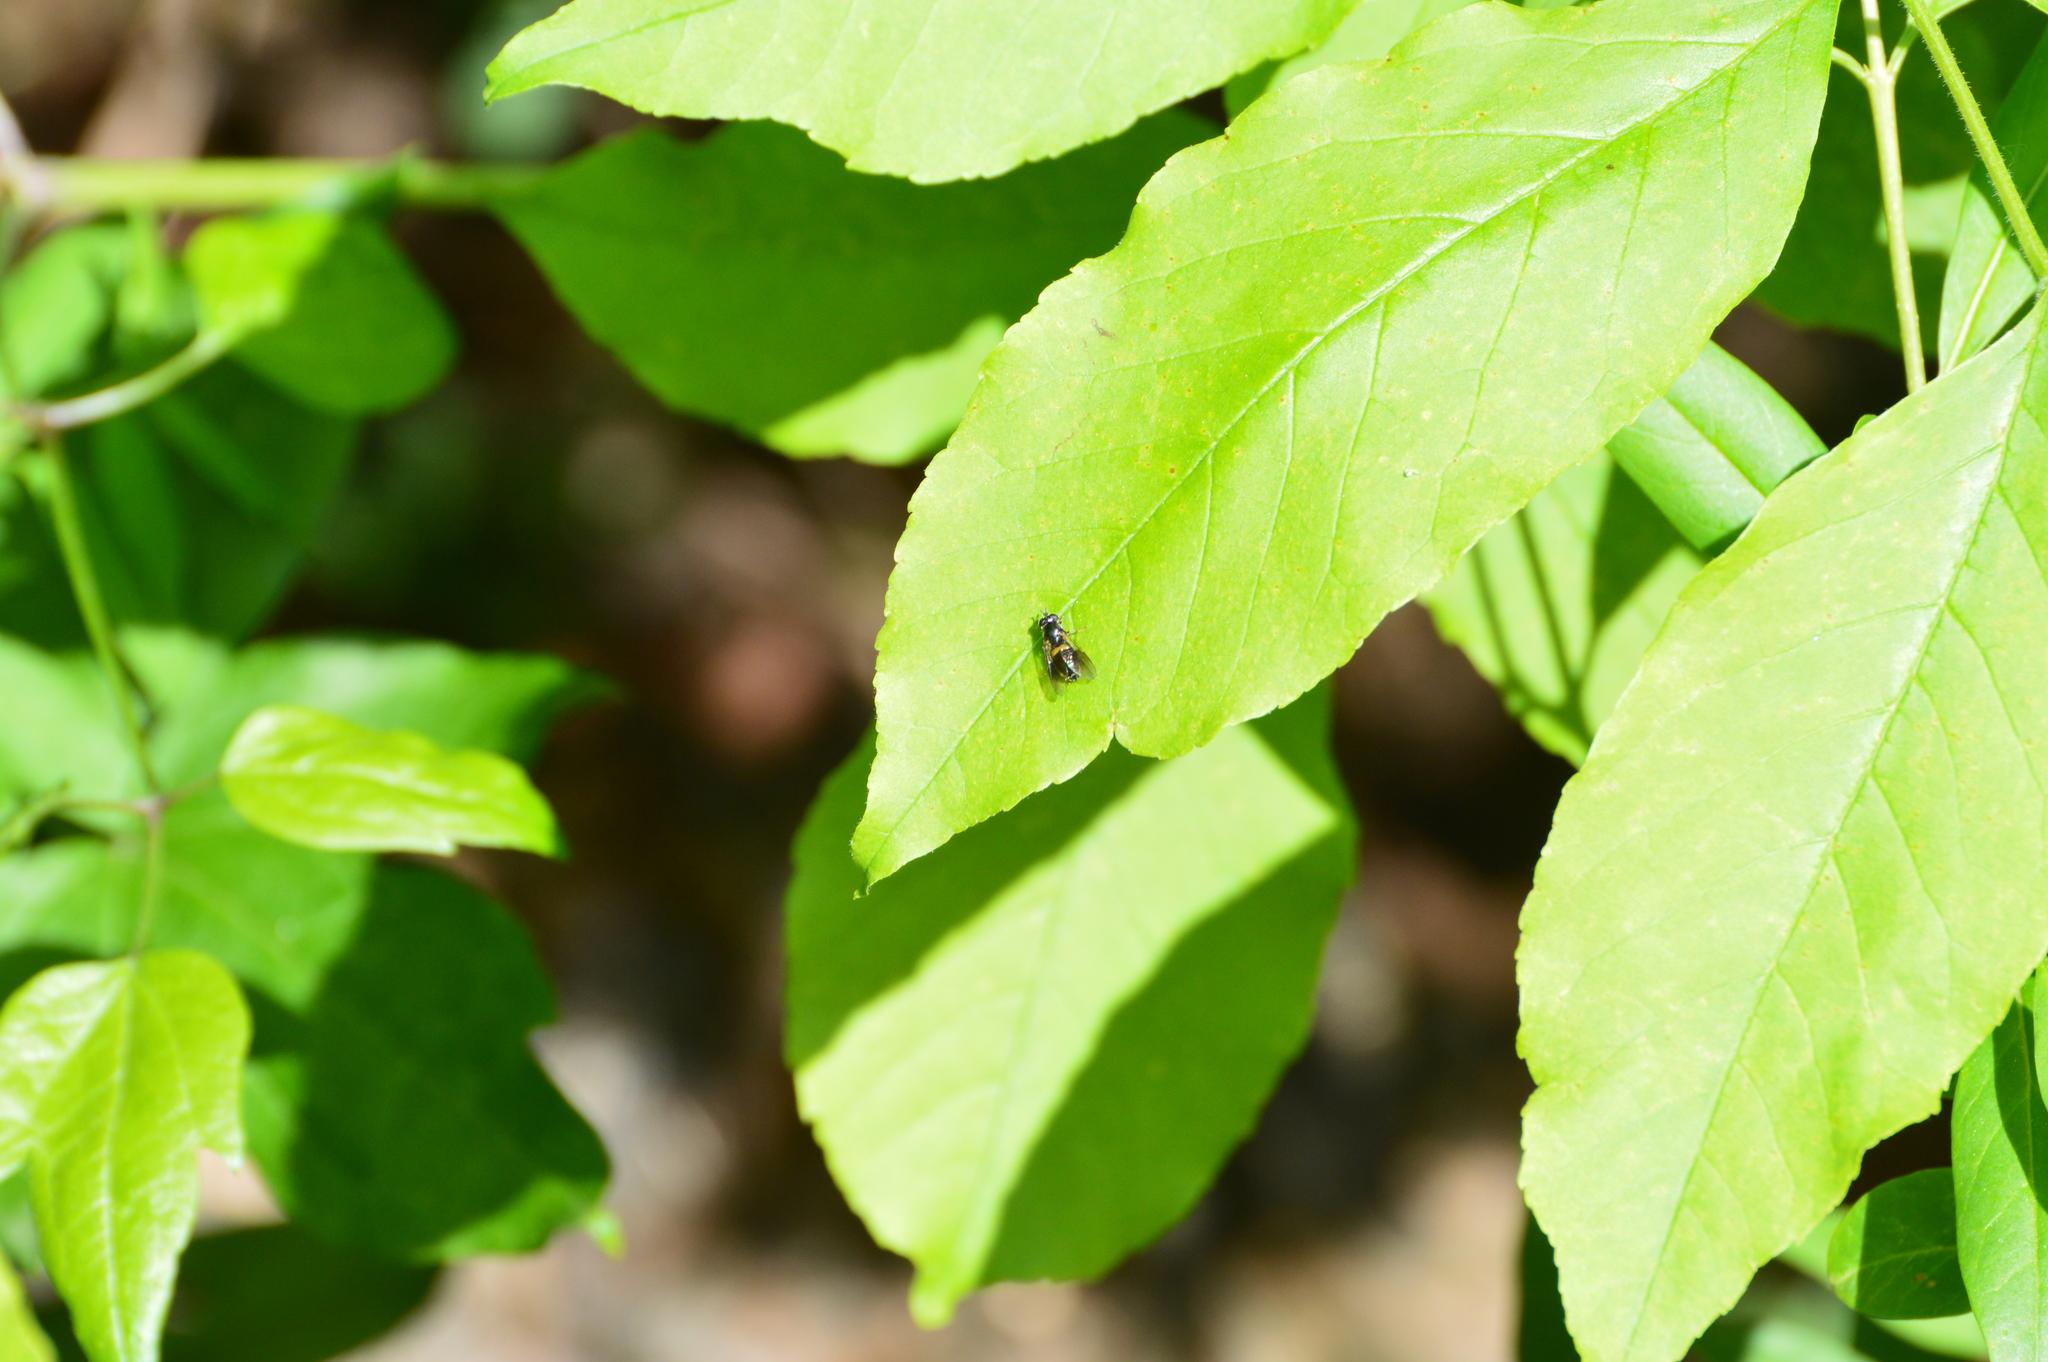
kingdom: Animalia
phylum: Arthropoda
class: Insecta
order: Diptera
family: Syrphidae
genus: Pipiza
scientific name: Pipiza
